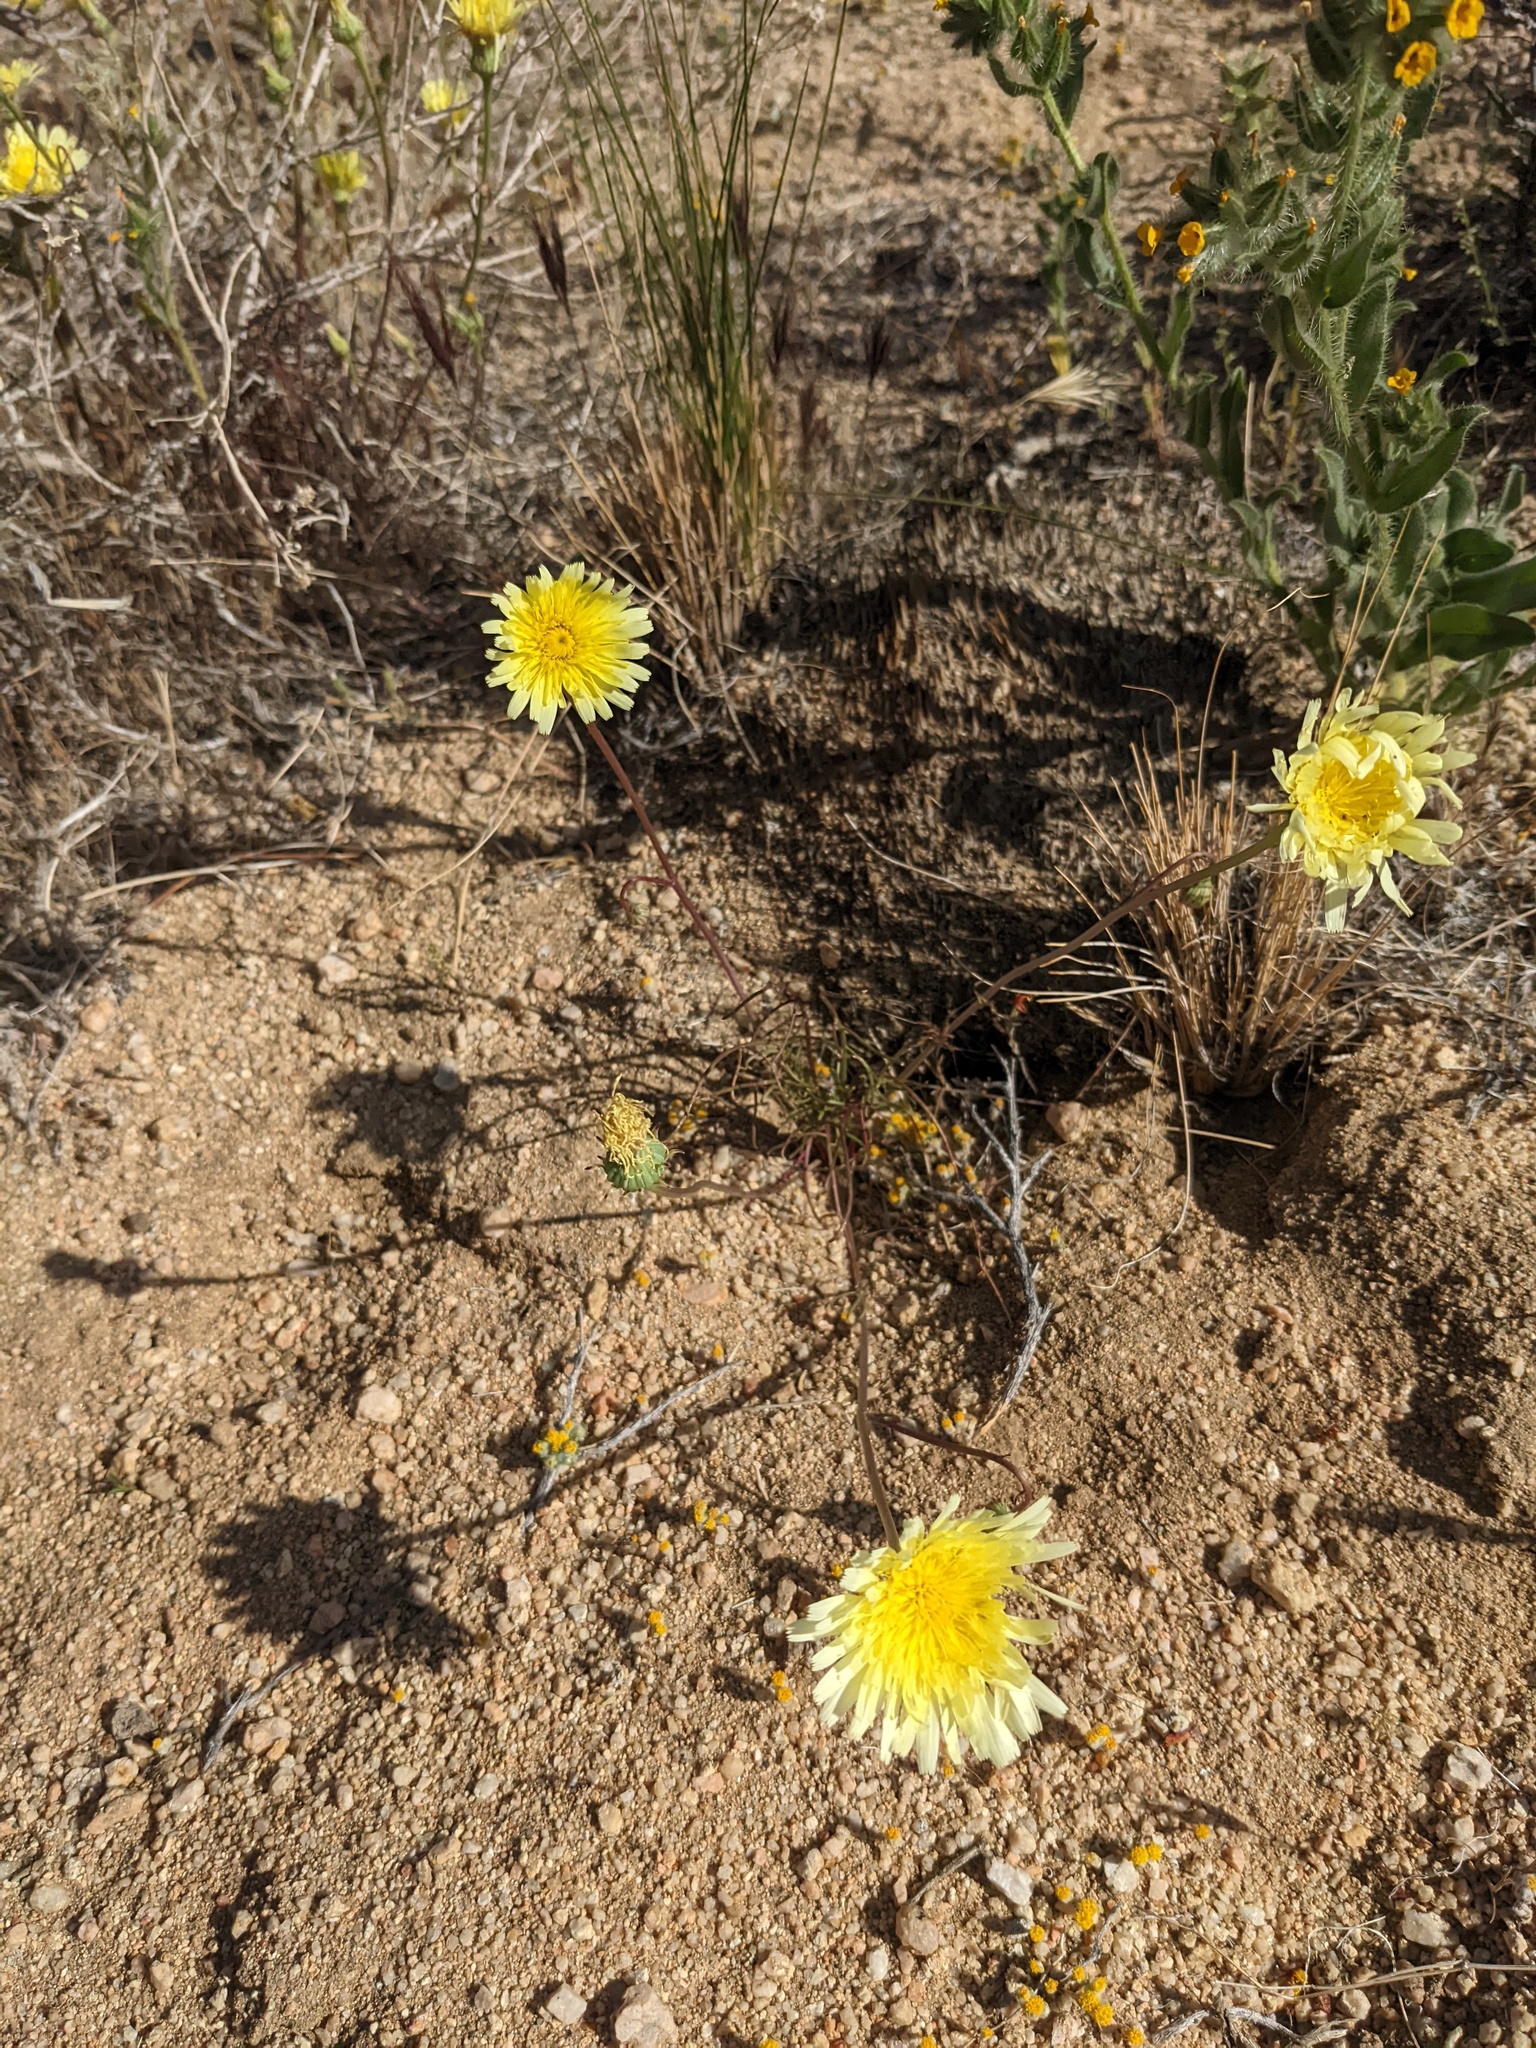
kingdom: Plantae
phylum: Tracheophyta
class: Magnoliopsida
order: Asterales
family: Asteraceae
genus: Malacothrix
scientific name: Malacothrix glabrata
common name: Smooth desert-dandelion
